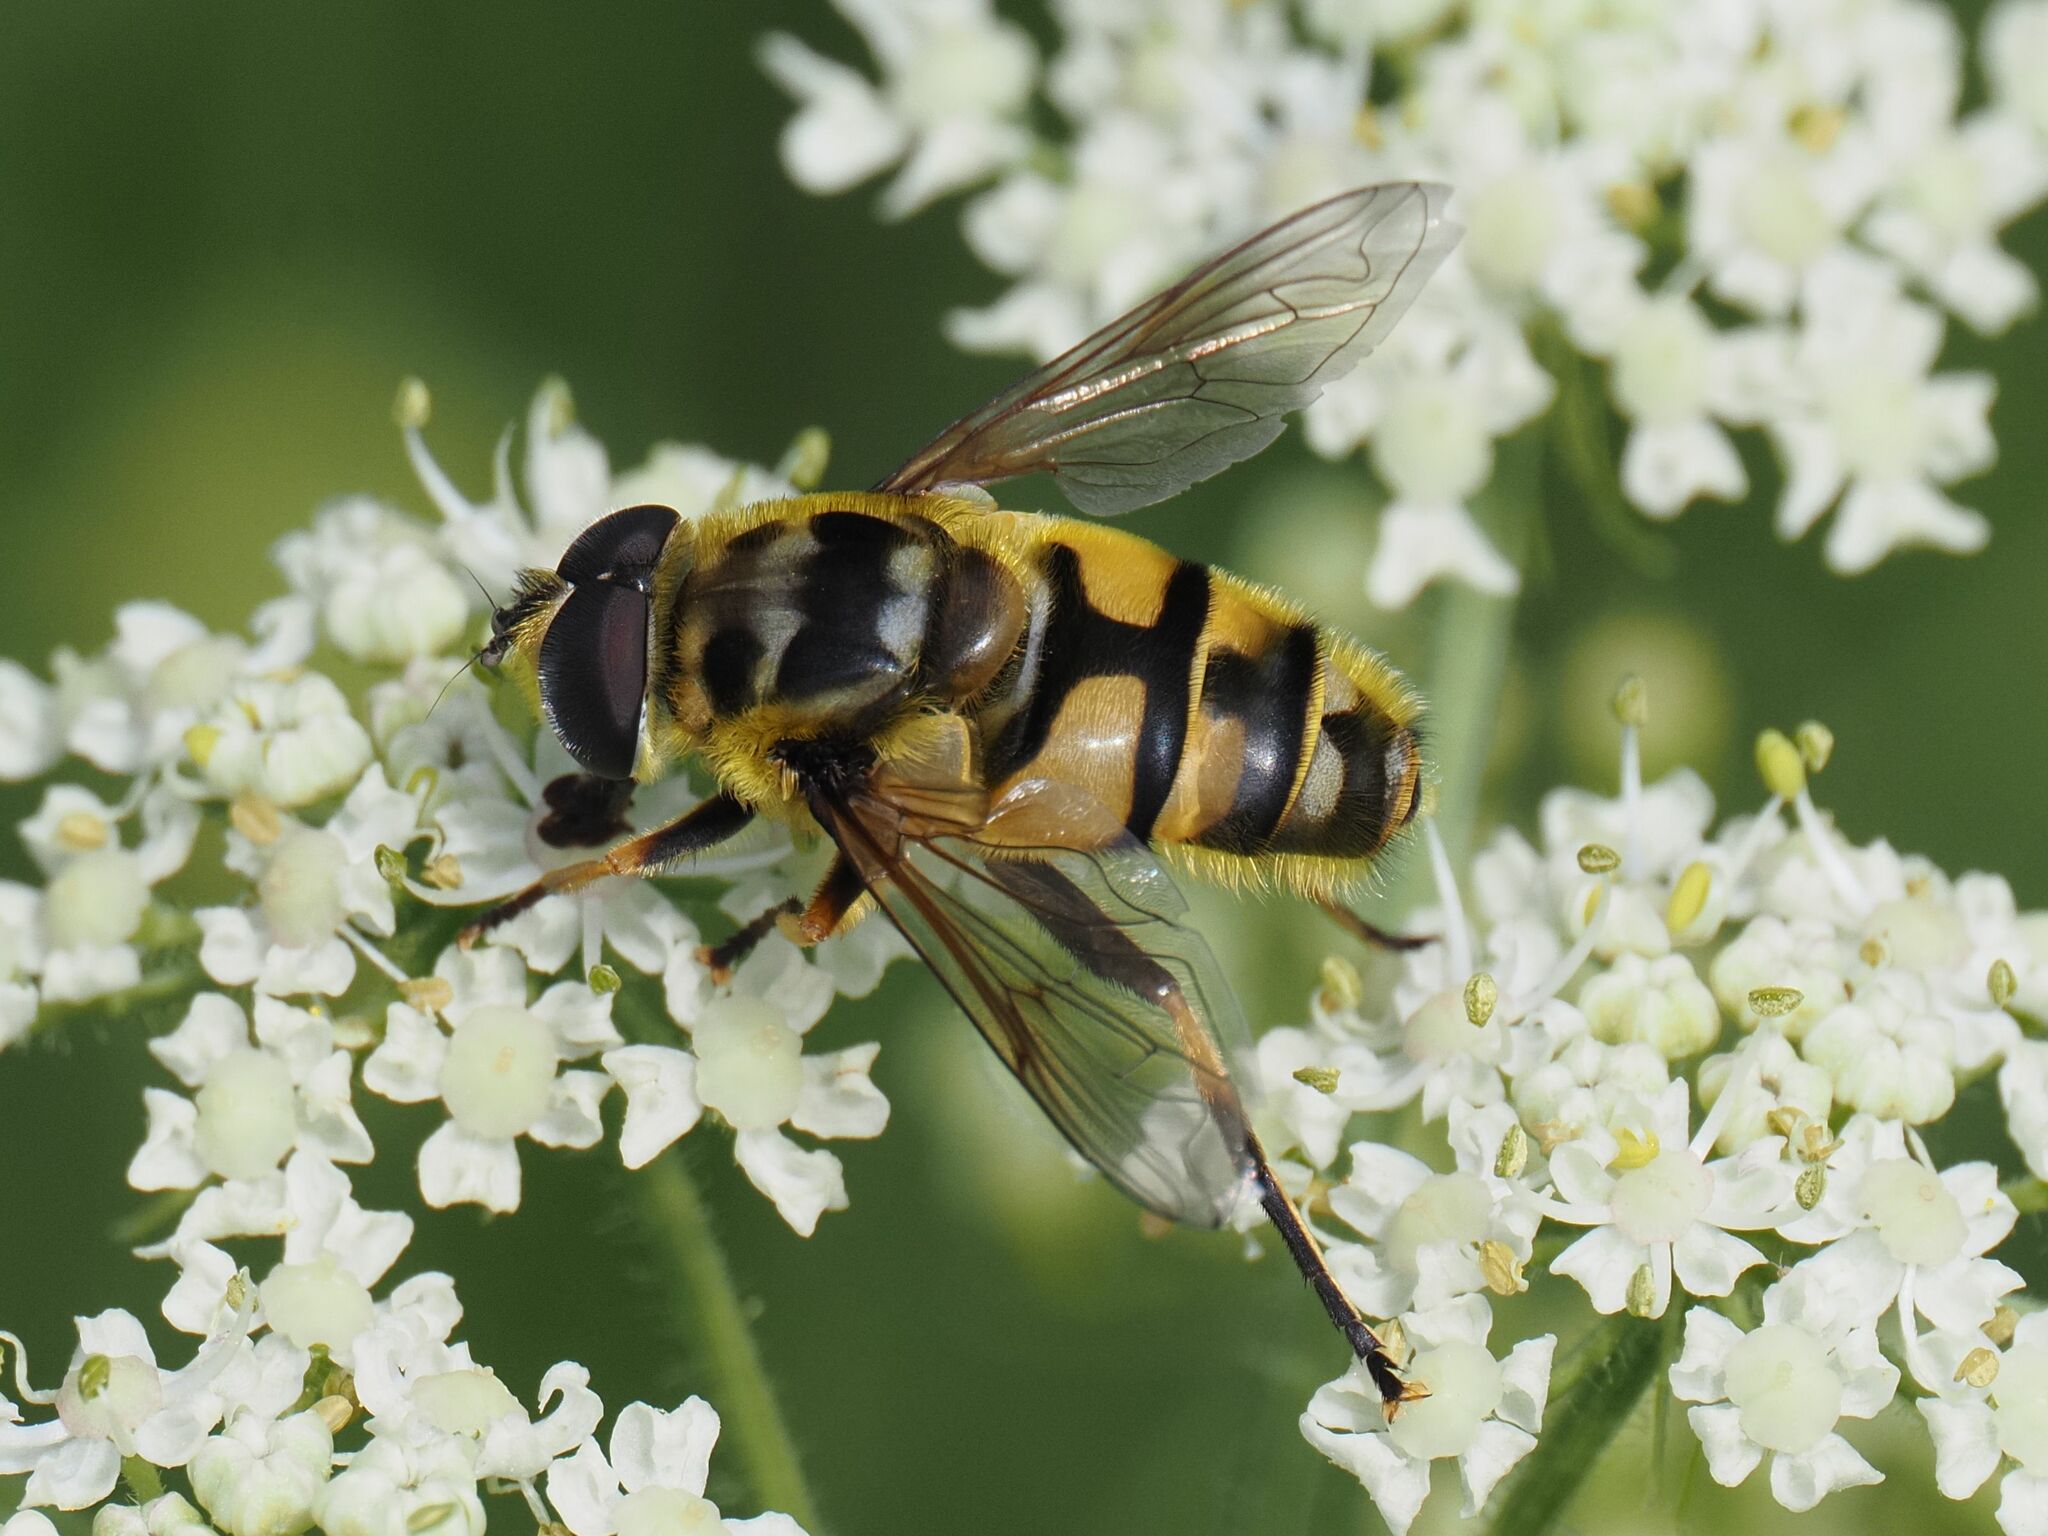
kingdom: Animalia
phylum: Arthropoda
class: Insecta
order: Diptera
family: Syrphidae
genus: Myathropa
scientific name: Myathropa florea
